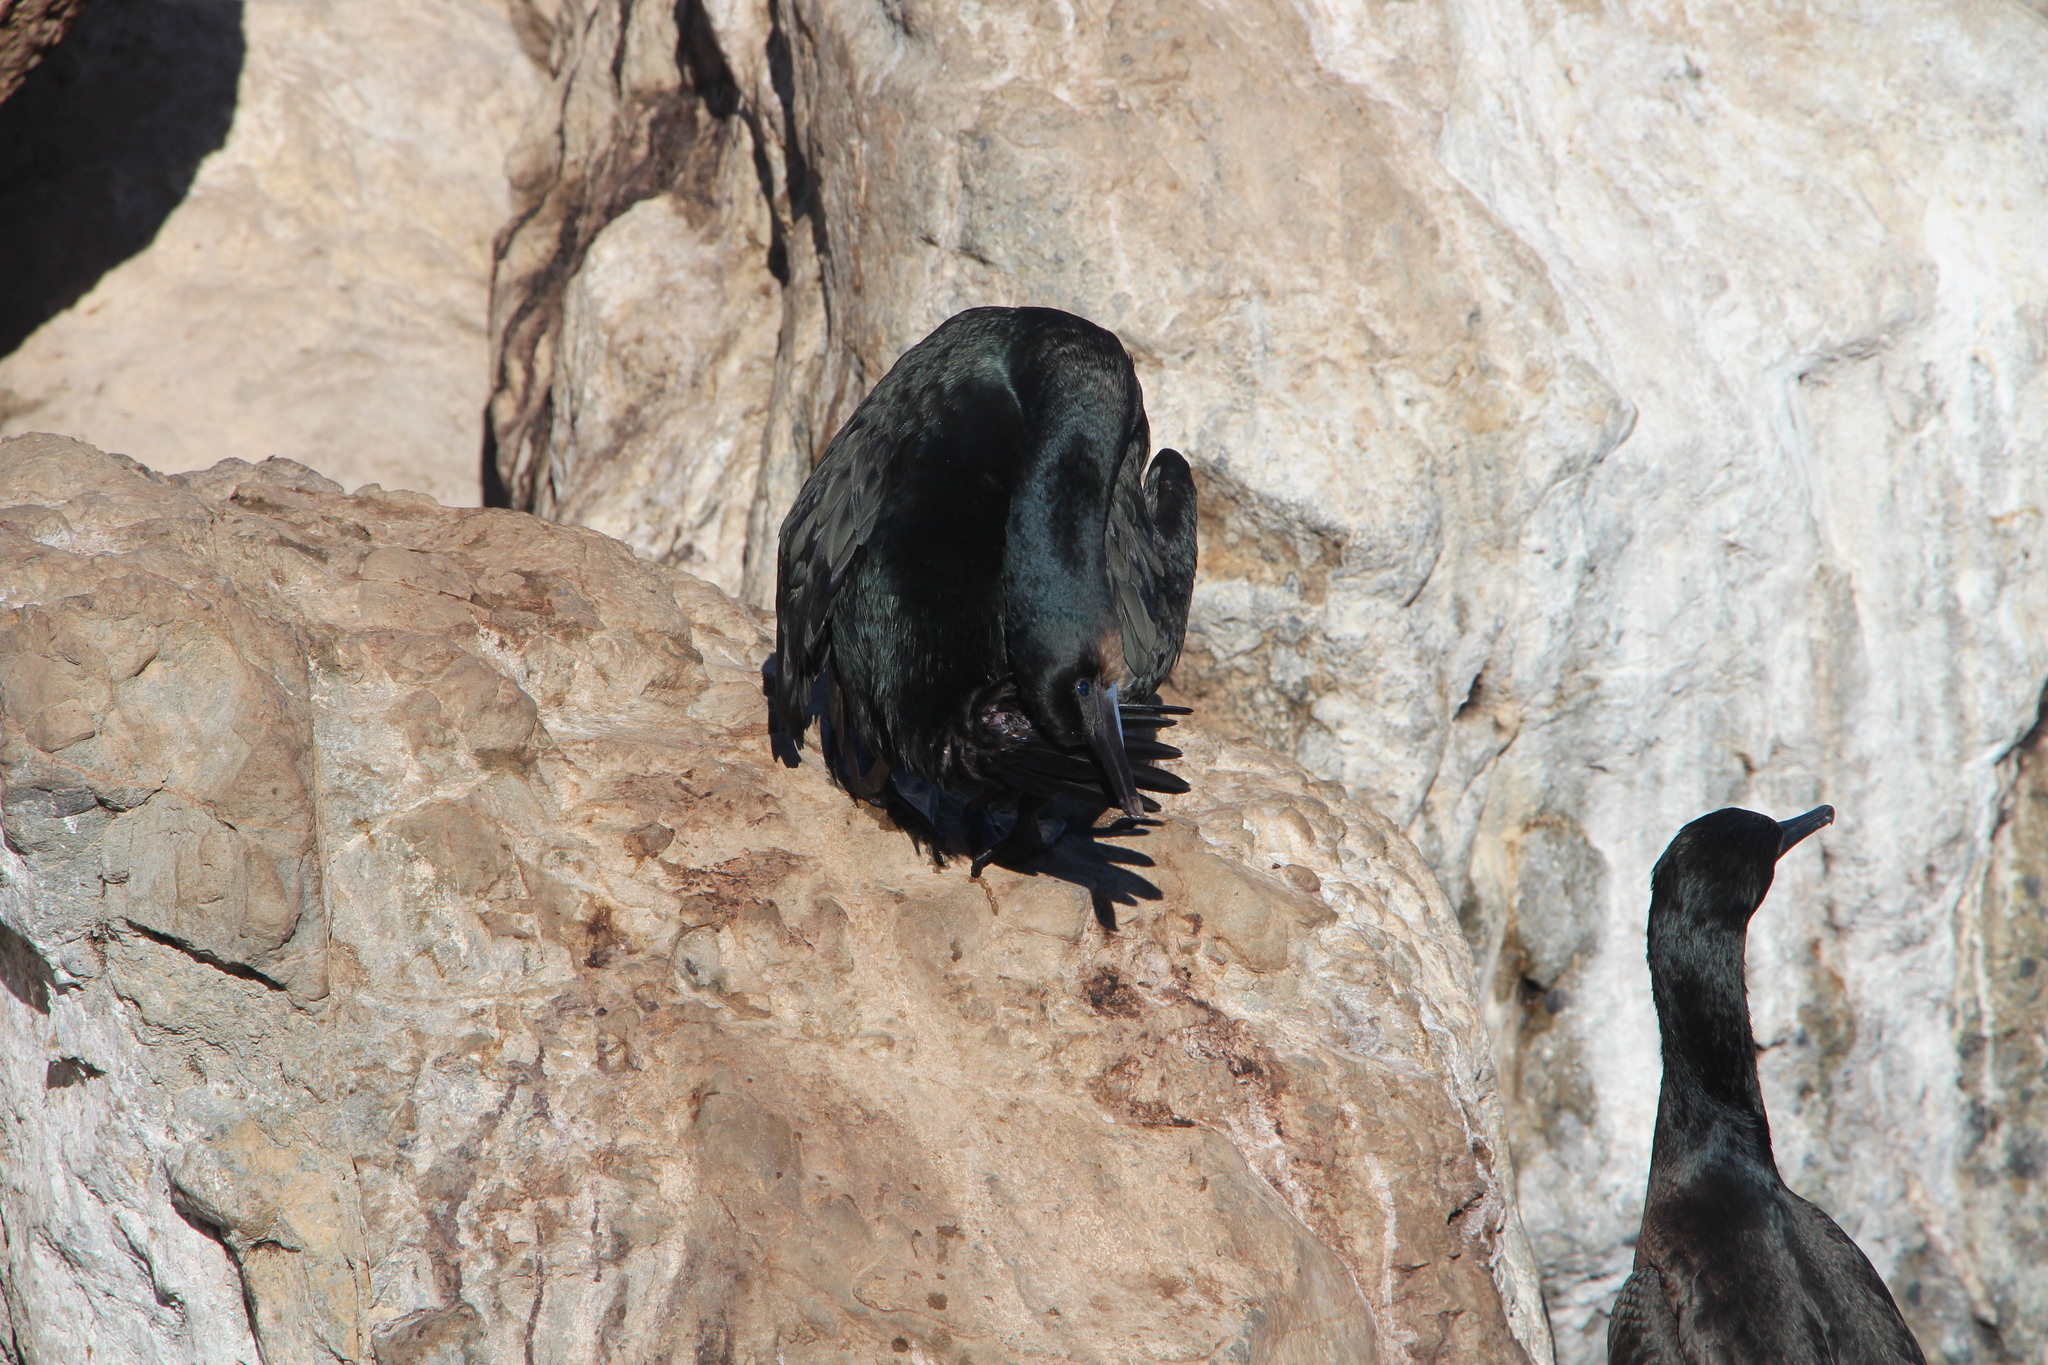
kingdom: Animalia
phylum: Chordata
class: Aves
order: Suliformes
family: Phalacrocoracidae
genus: Urile
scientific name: Urile penicillatus
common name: Brandt's cormorant
